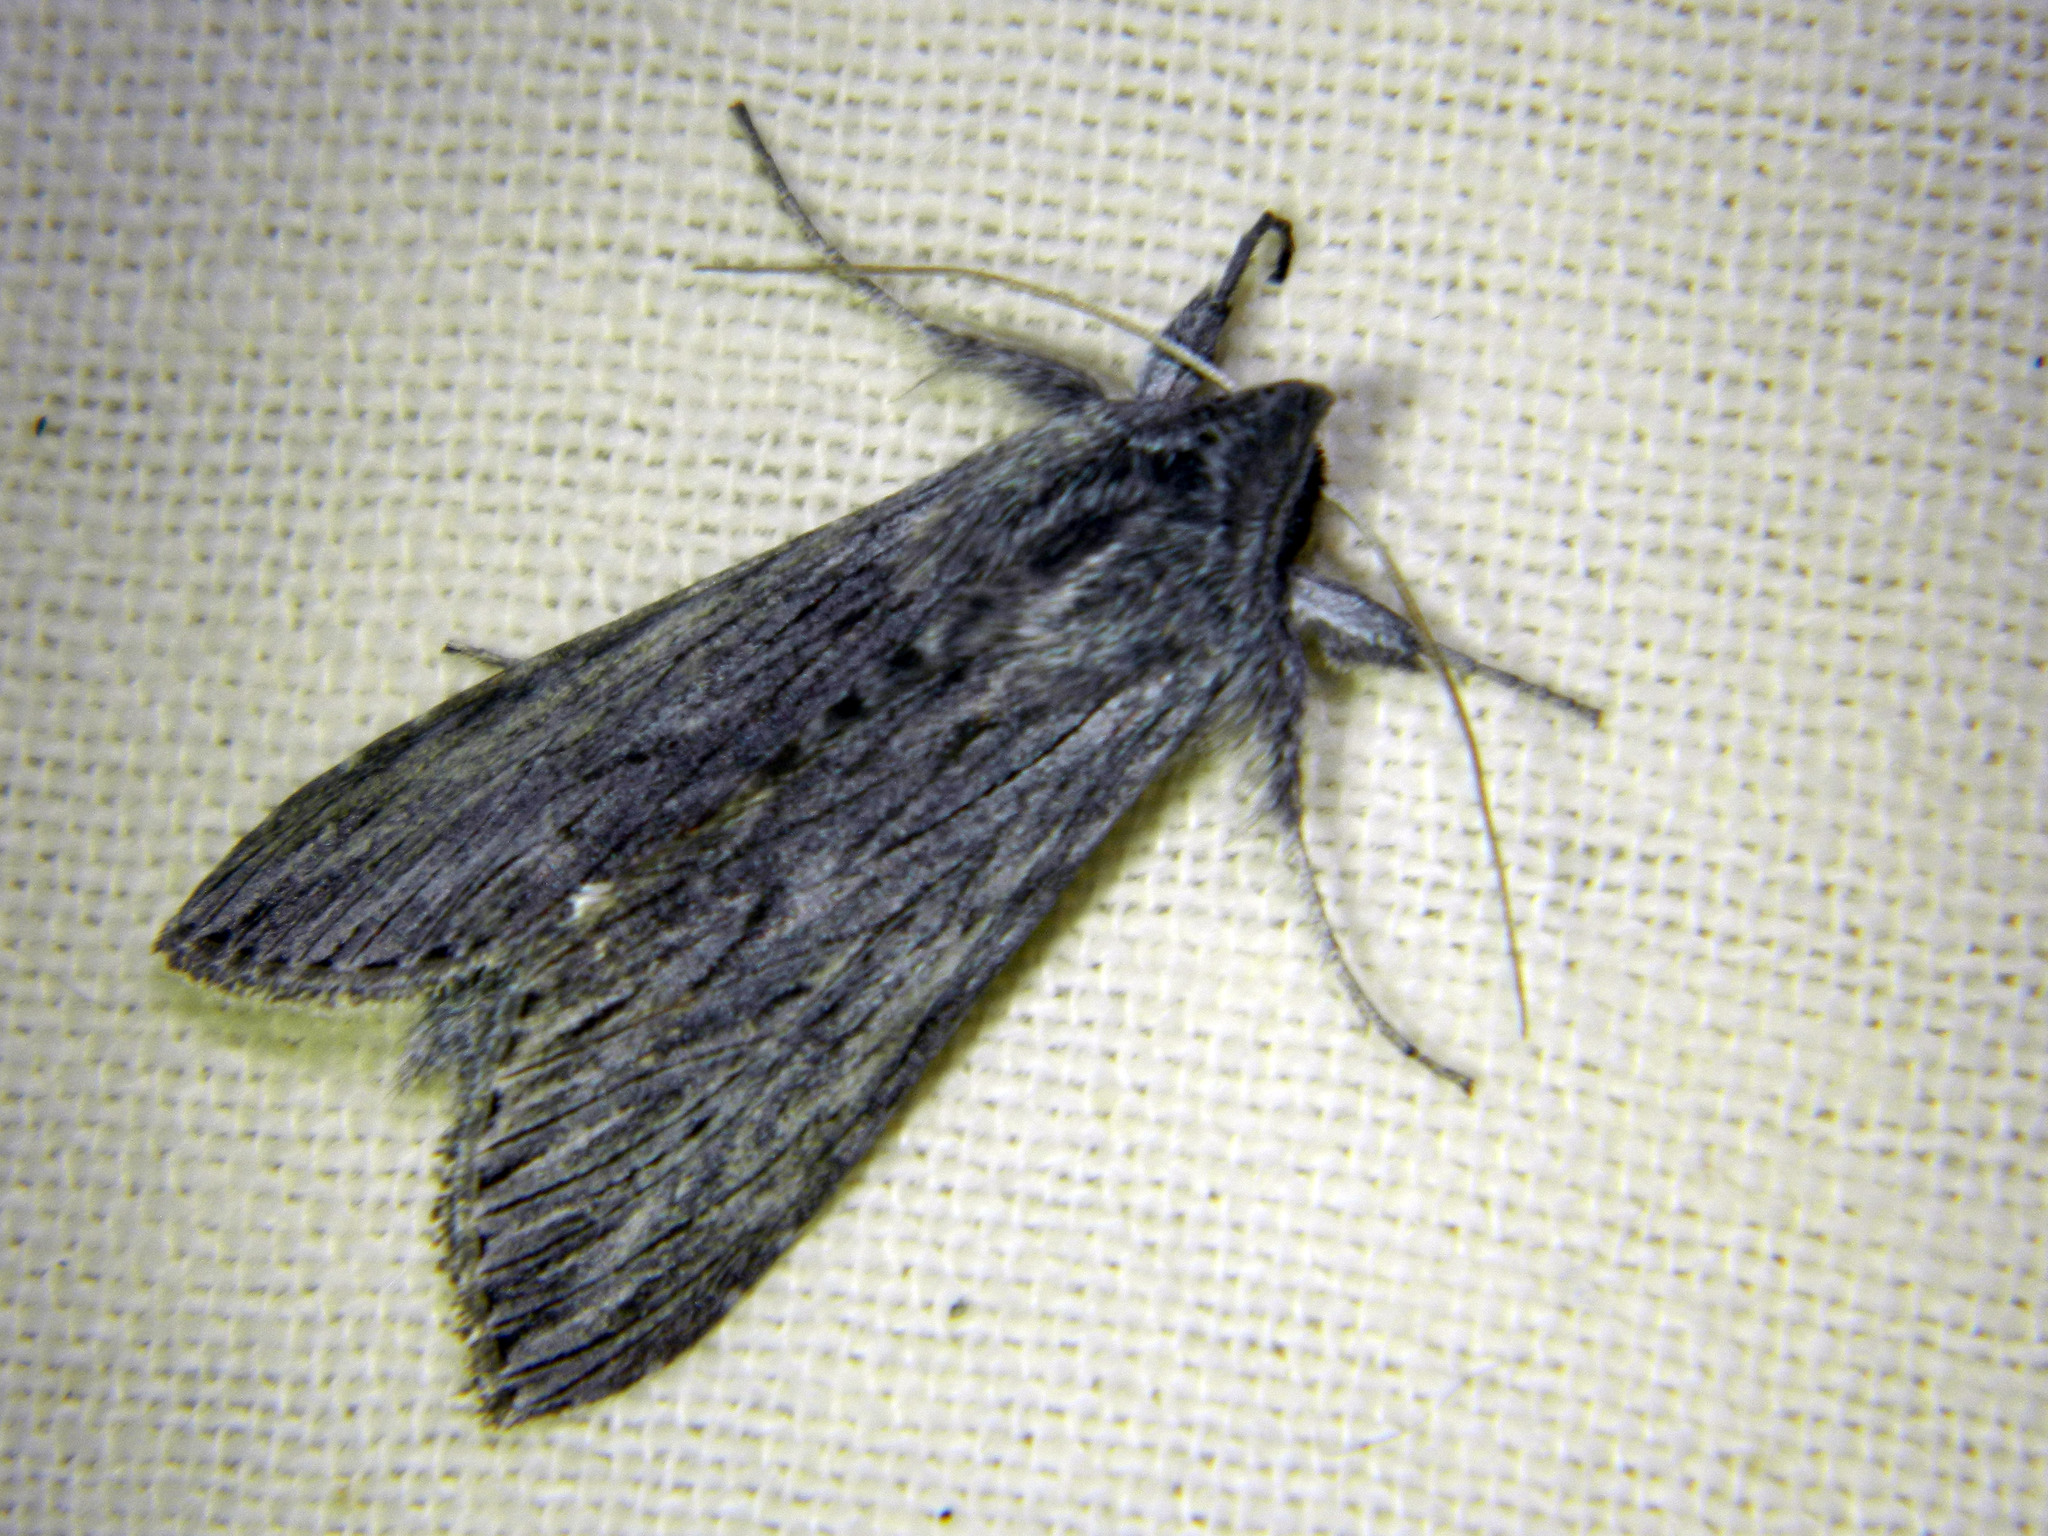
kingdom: Animalia
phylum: Arthropoda
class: Insecta
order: Lepidoptera
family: Noctuidae
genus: Cucullia
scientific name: Cucullia intermedia
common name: Goldenrod cutworm
